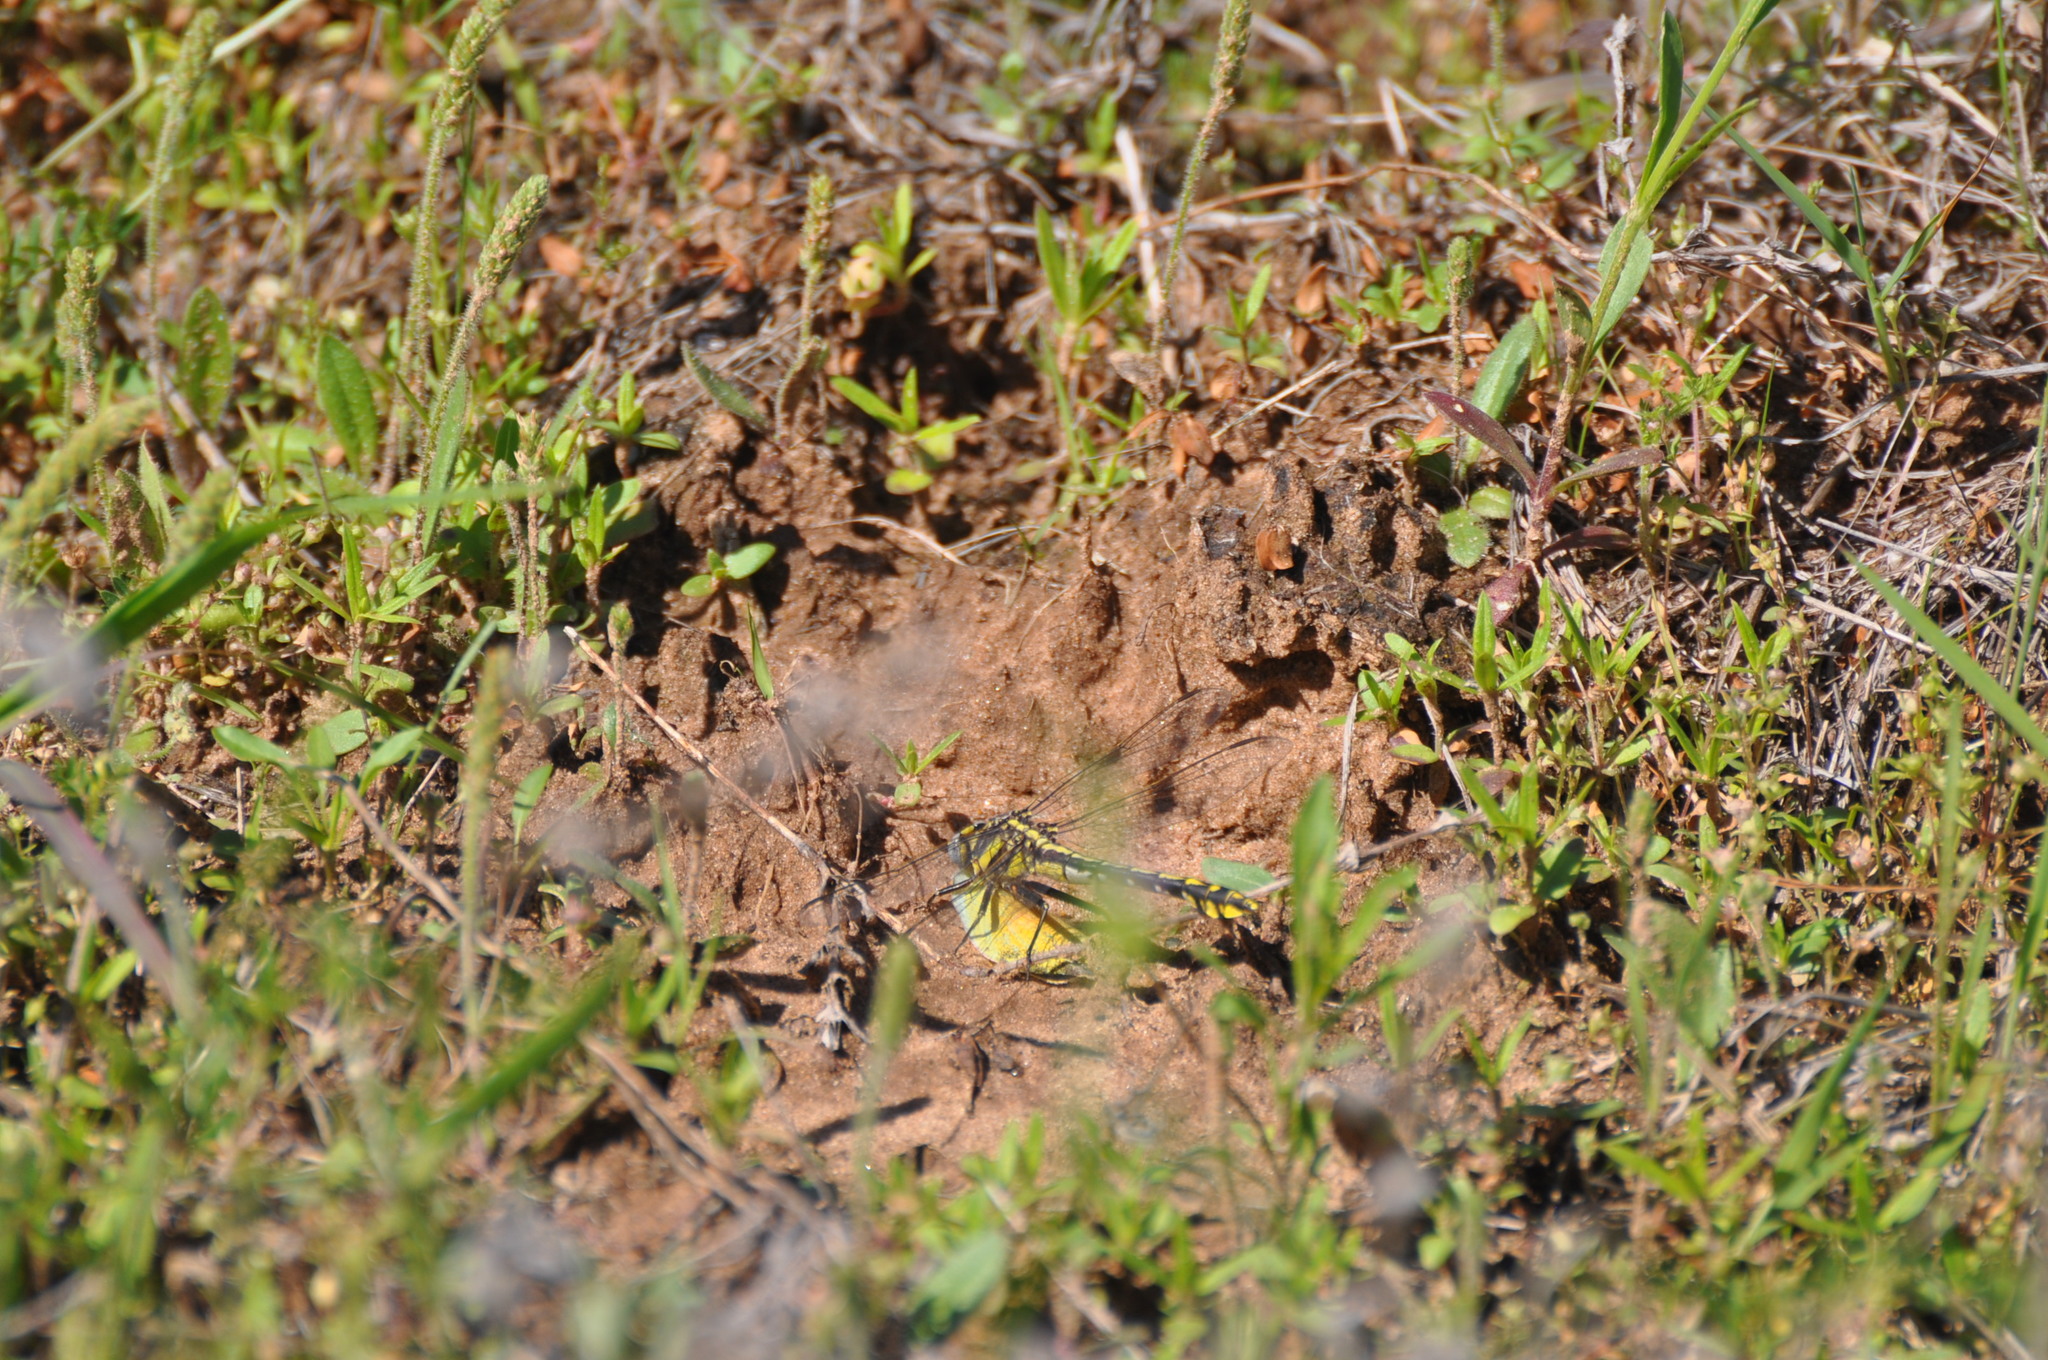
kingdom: Animalia
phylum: Arthropoda
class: Insecta
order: Odonata
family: Gomphidae
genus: Gomphurus
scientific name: Gomphurus externus
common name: Plains clubtail
